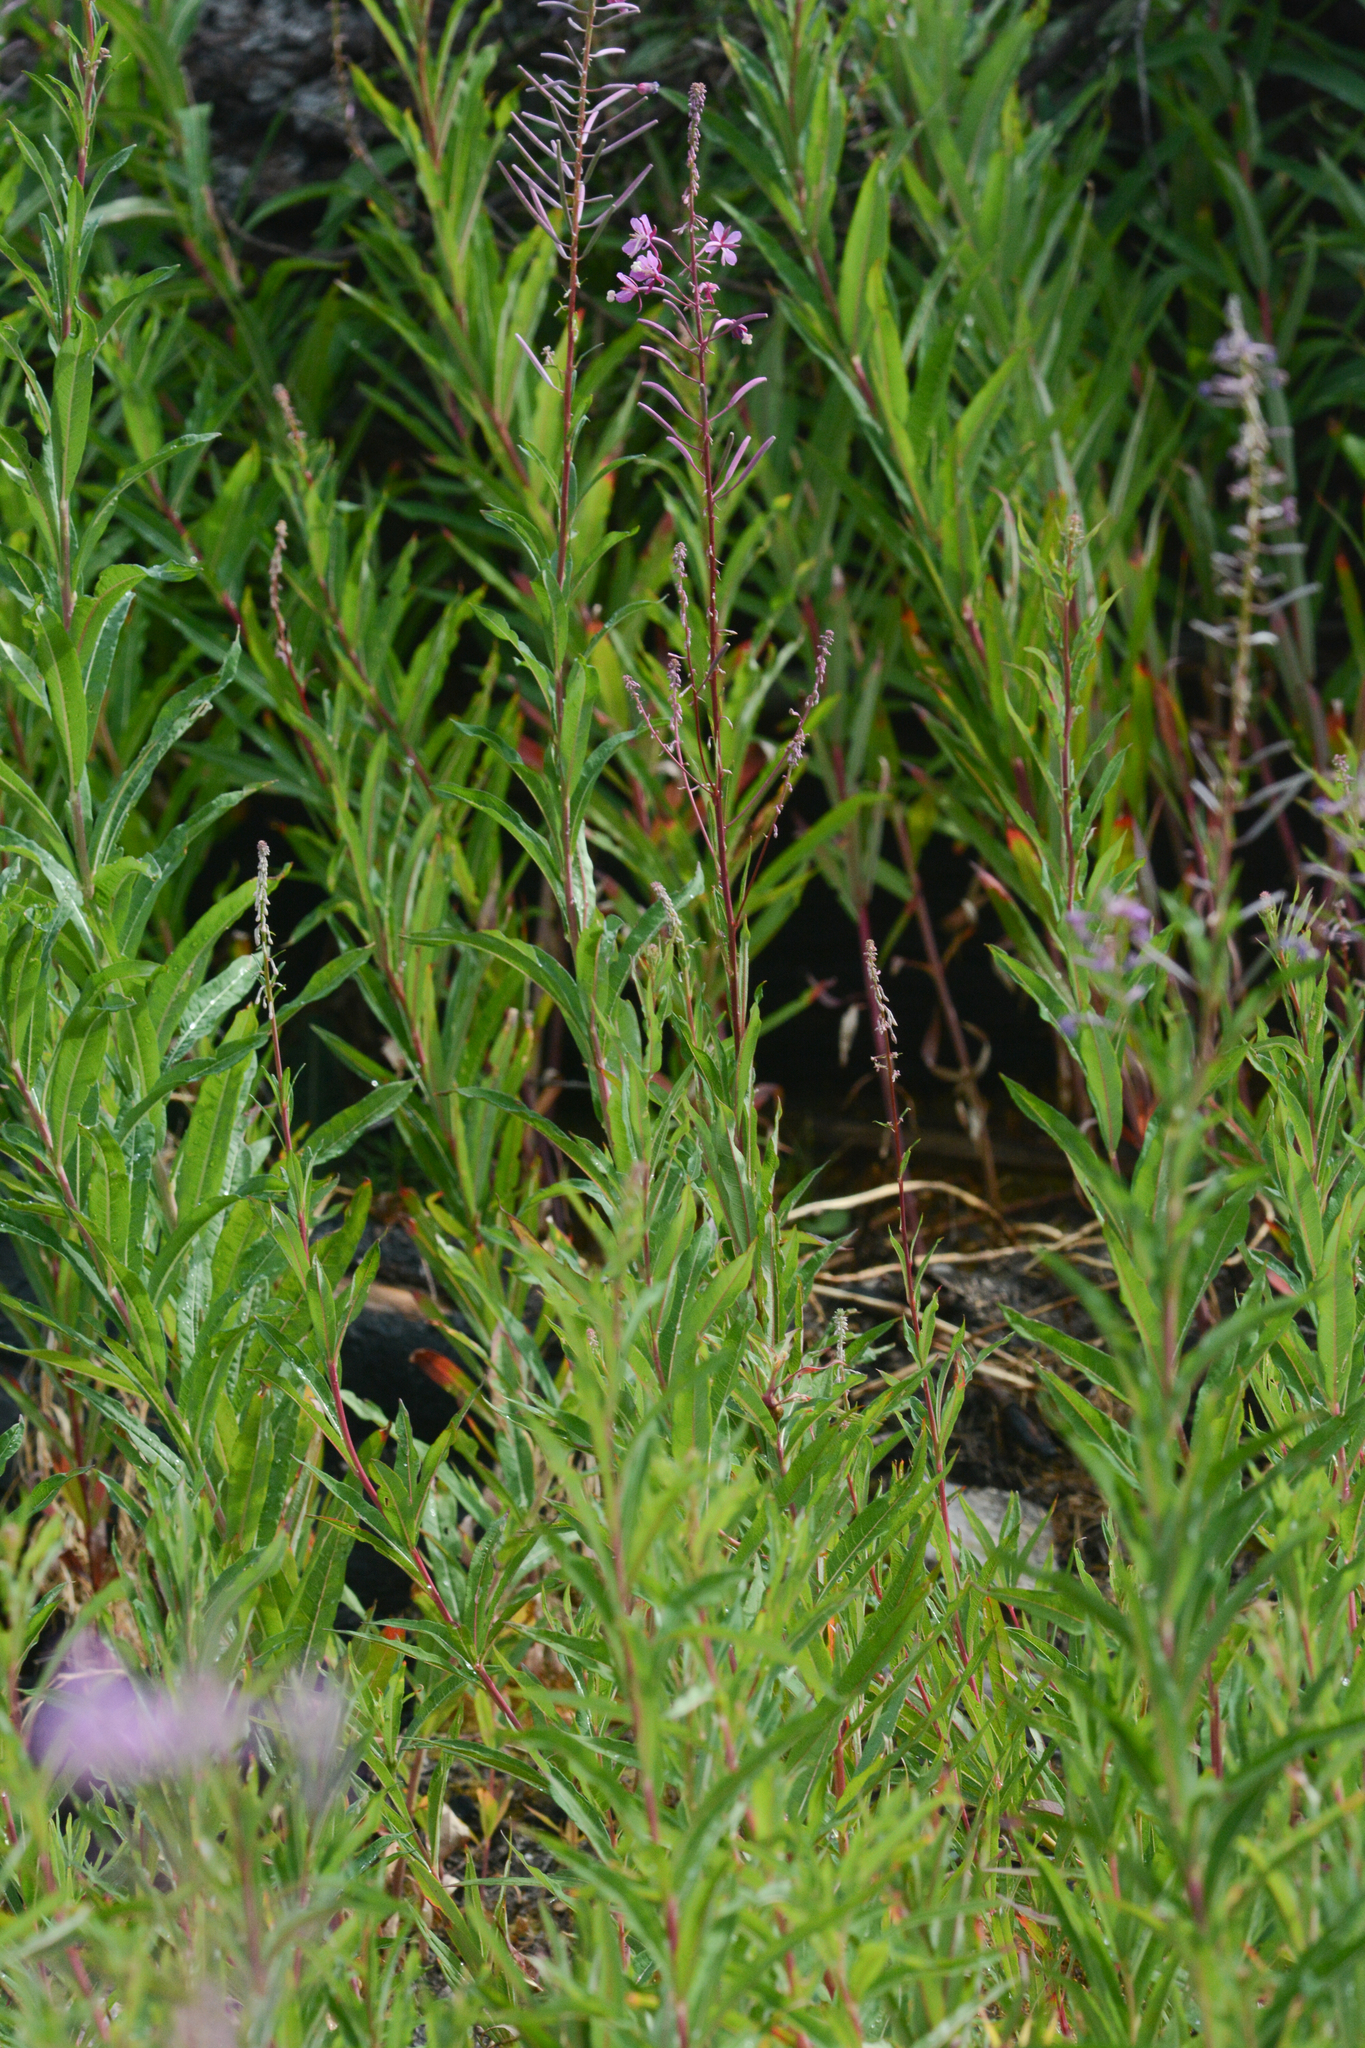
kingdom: Plantae
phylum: Tracheophyta
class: Magnoliopsida
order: Myrtales
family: Onagraceae
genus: Chamaenerion
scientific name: Chamaenerion angustifolium
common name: Fireweed
